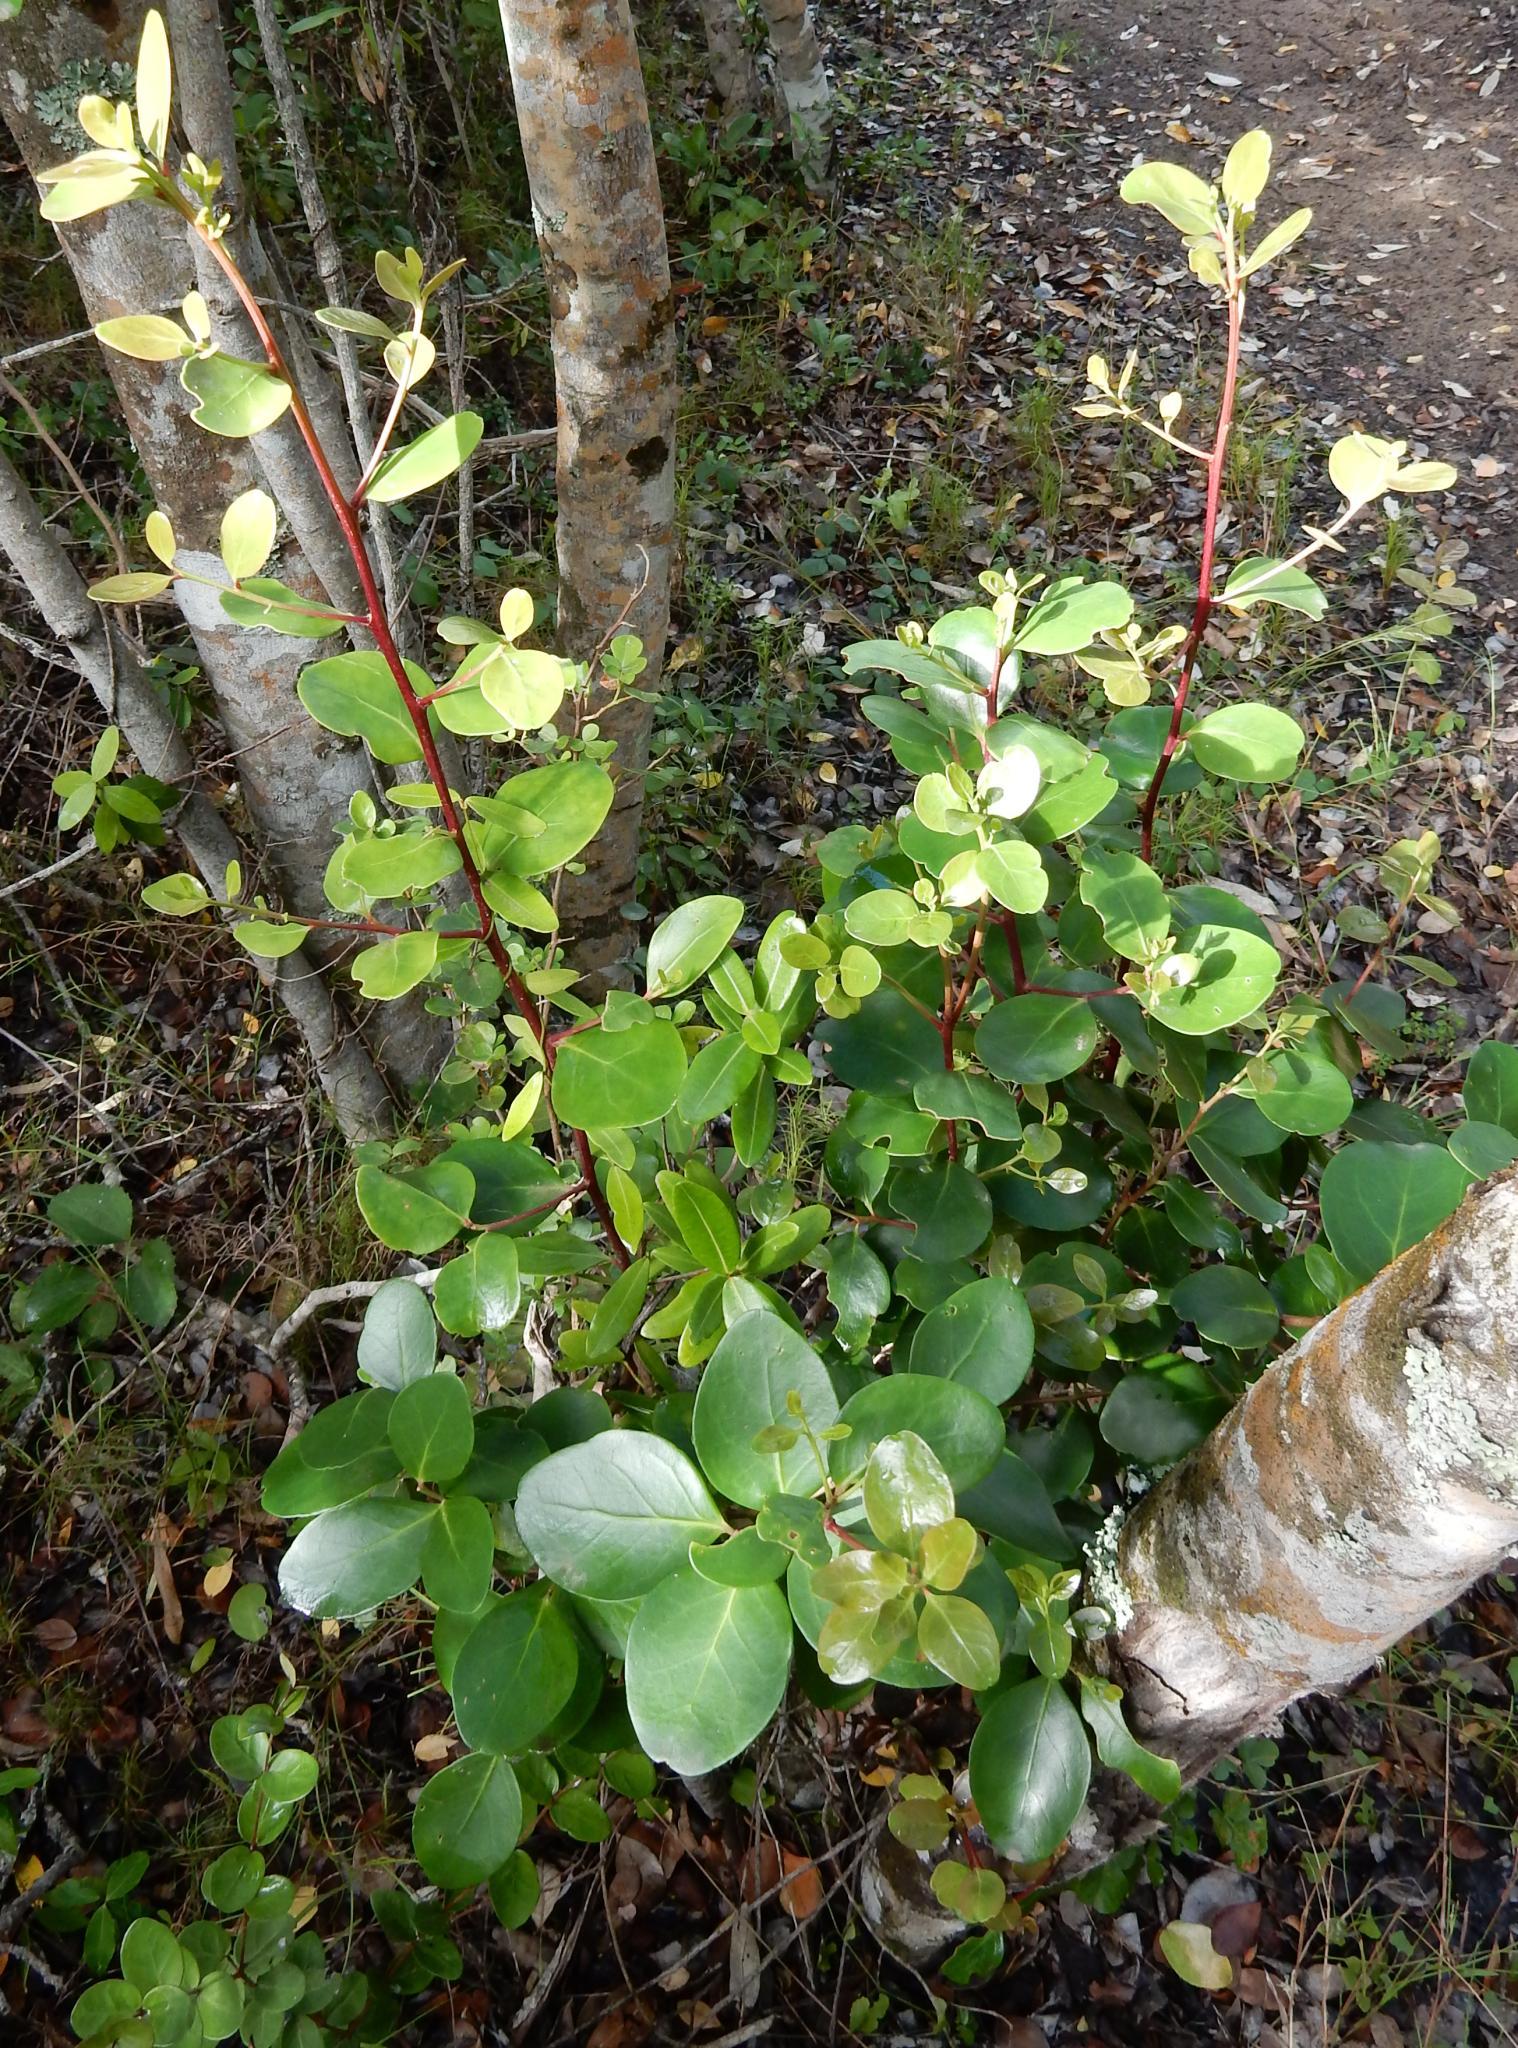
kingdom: Plantae
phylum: Tracheophyta
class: Magnoliopsida
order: Celastrales
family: Celastraceae
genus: Pterocelastrus
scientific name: Pterocelastrus tricuspidatus
